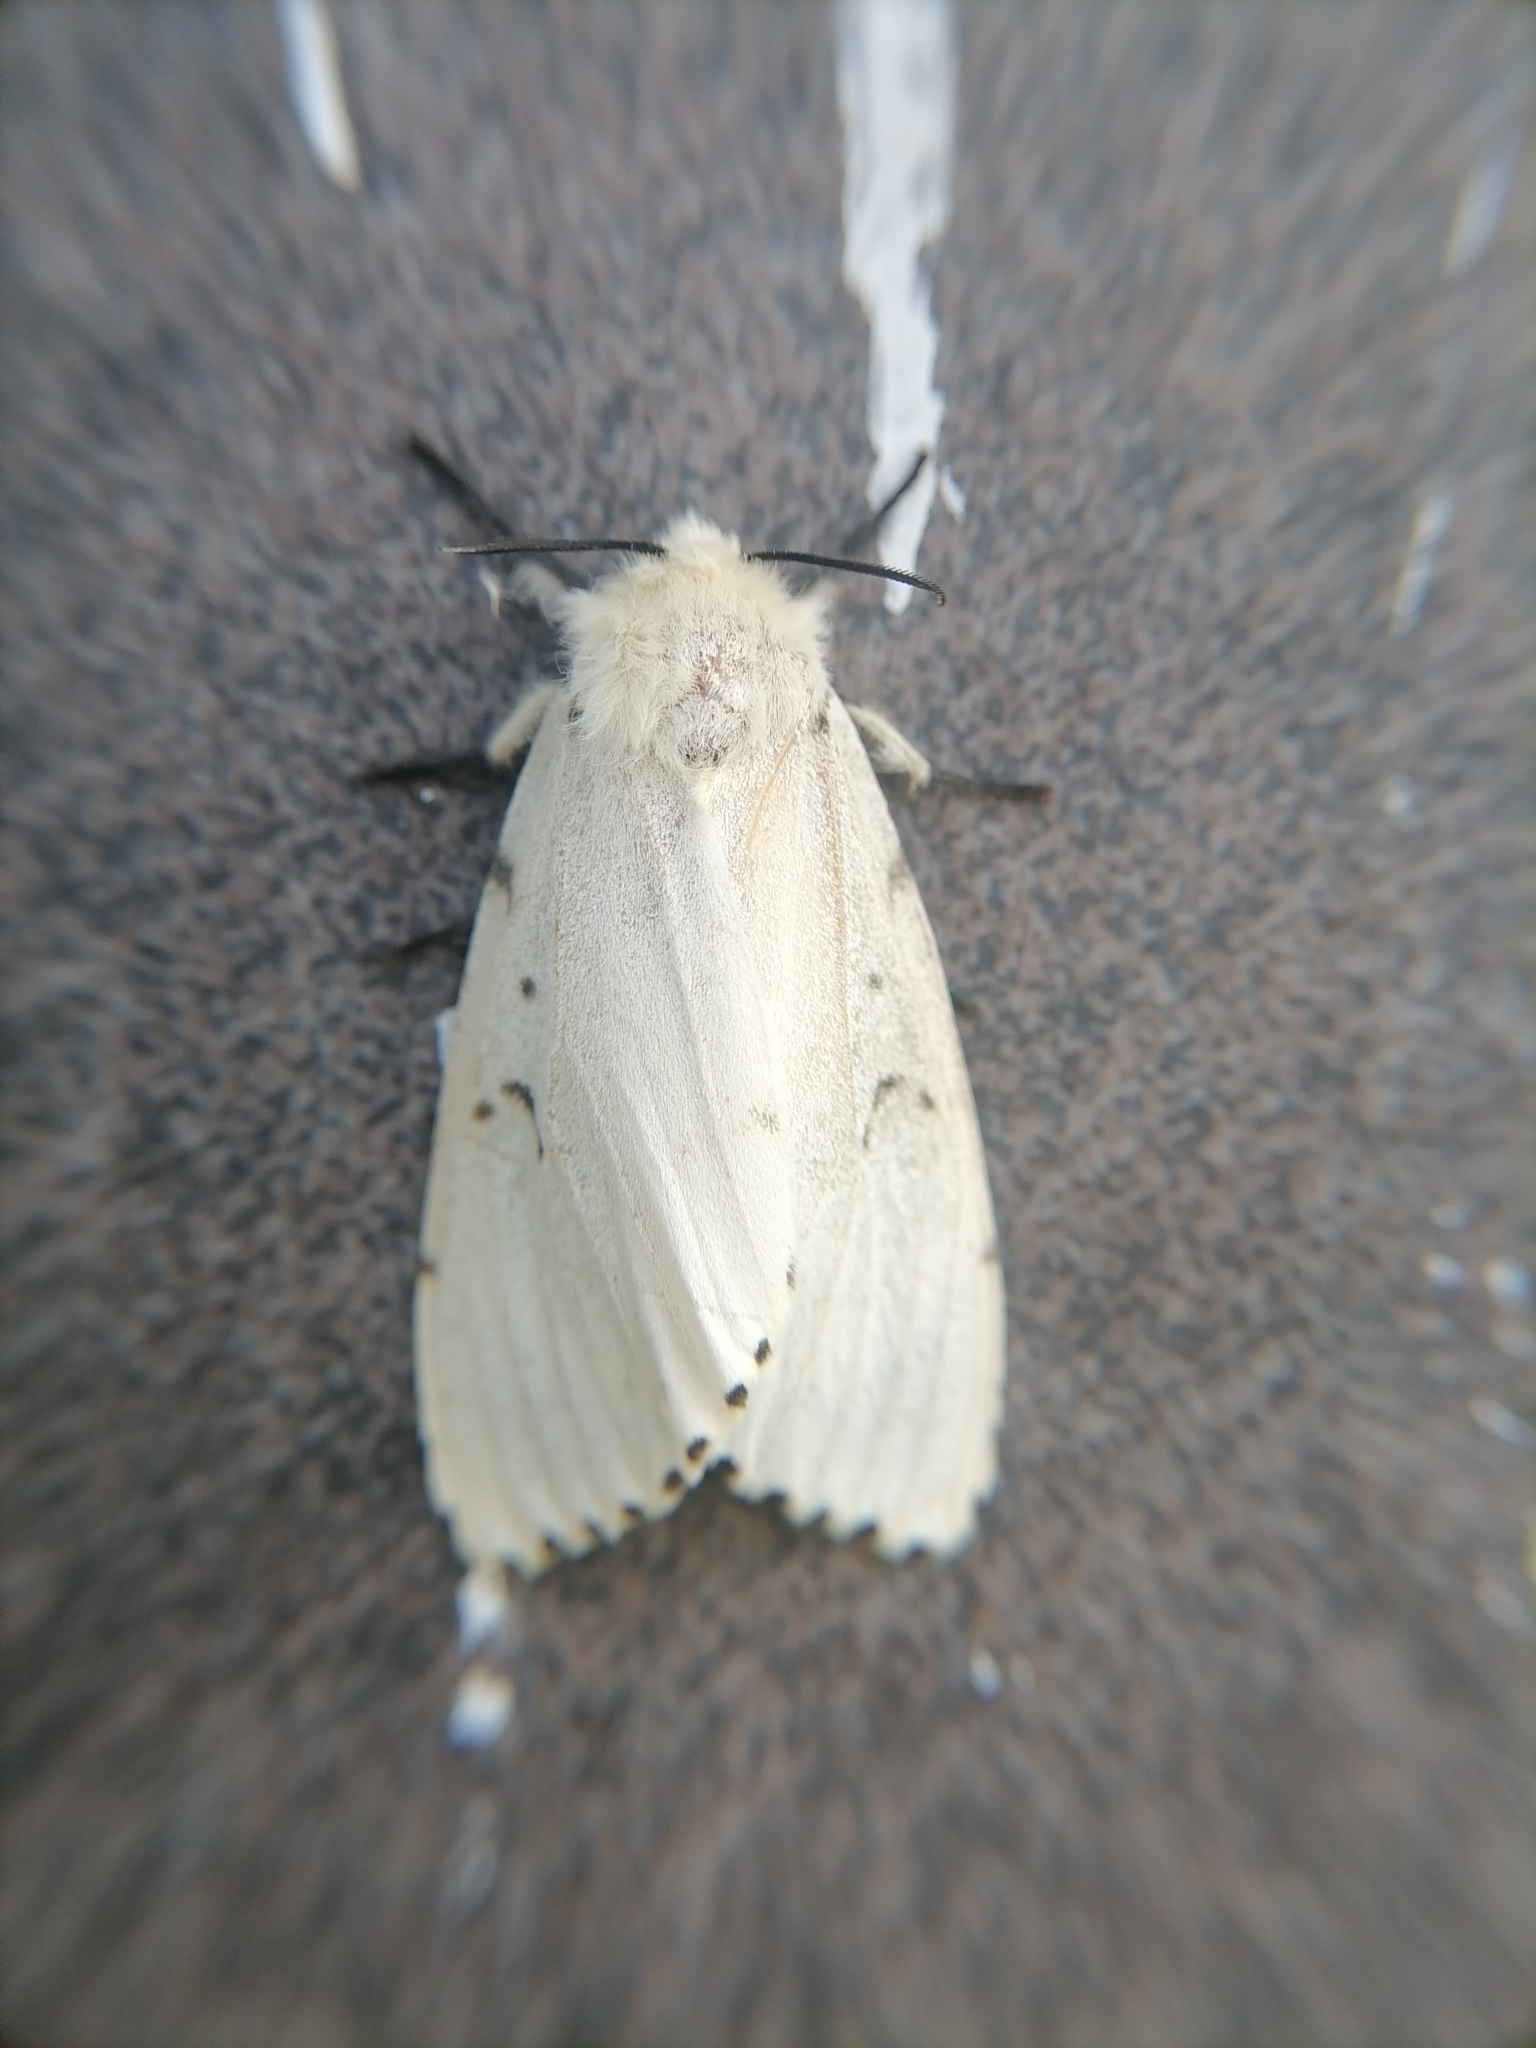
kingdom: Animalia
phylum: Arthropoda
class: Insecta
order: Lepidoptera
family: Erebidae
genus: Lymantria
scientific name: Lymantria dispar
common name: Gypsy moth
